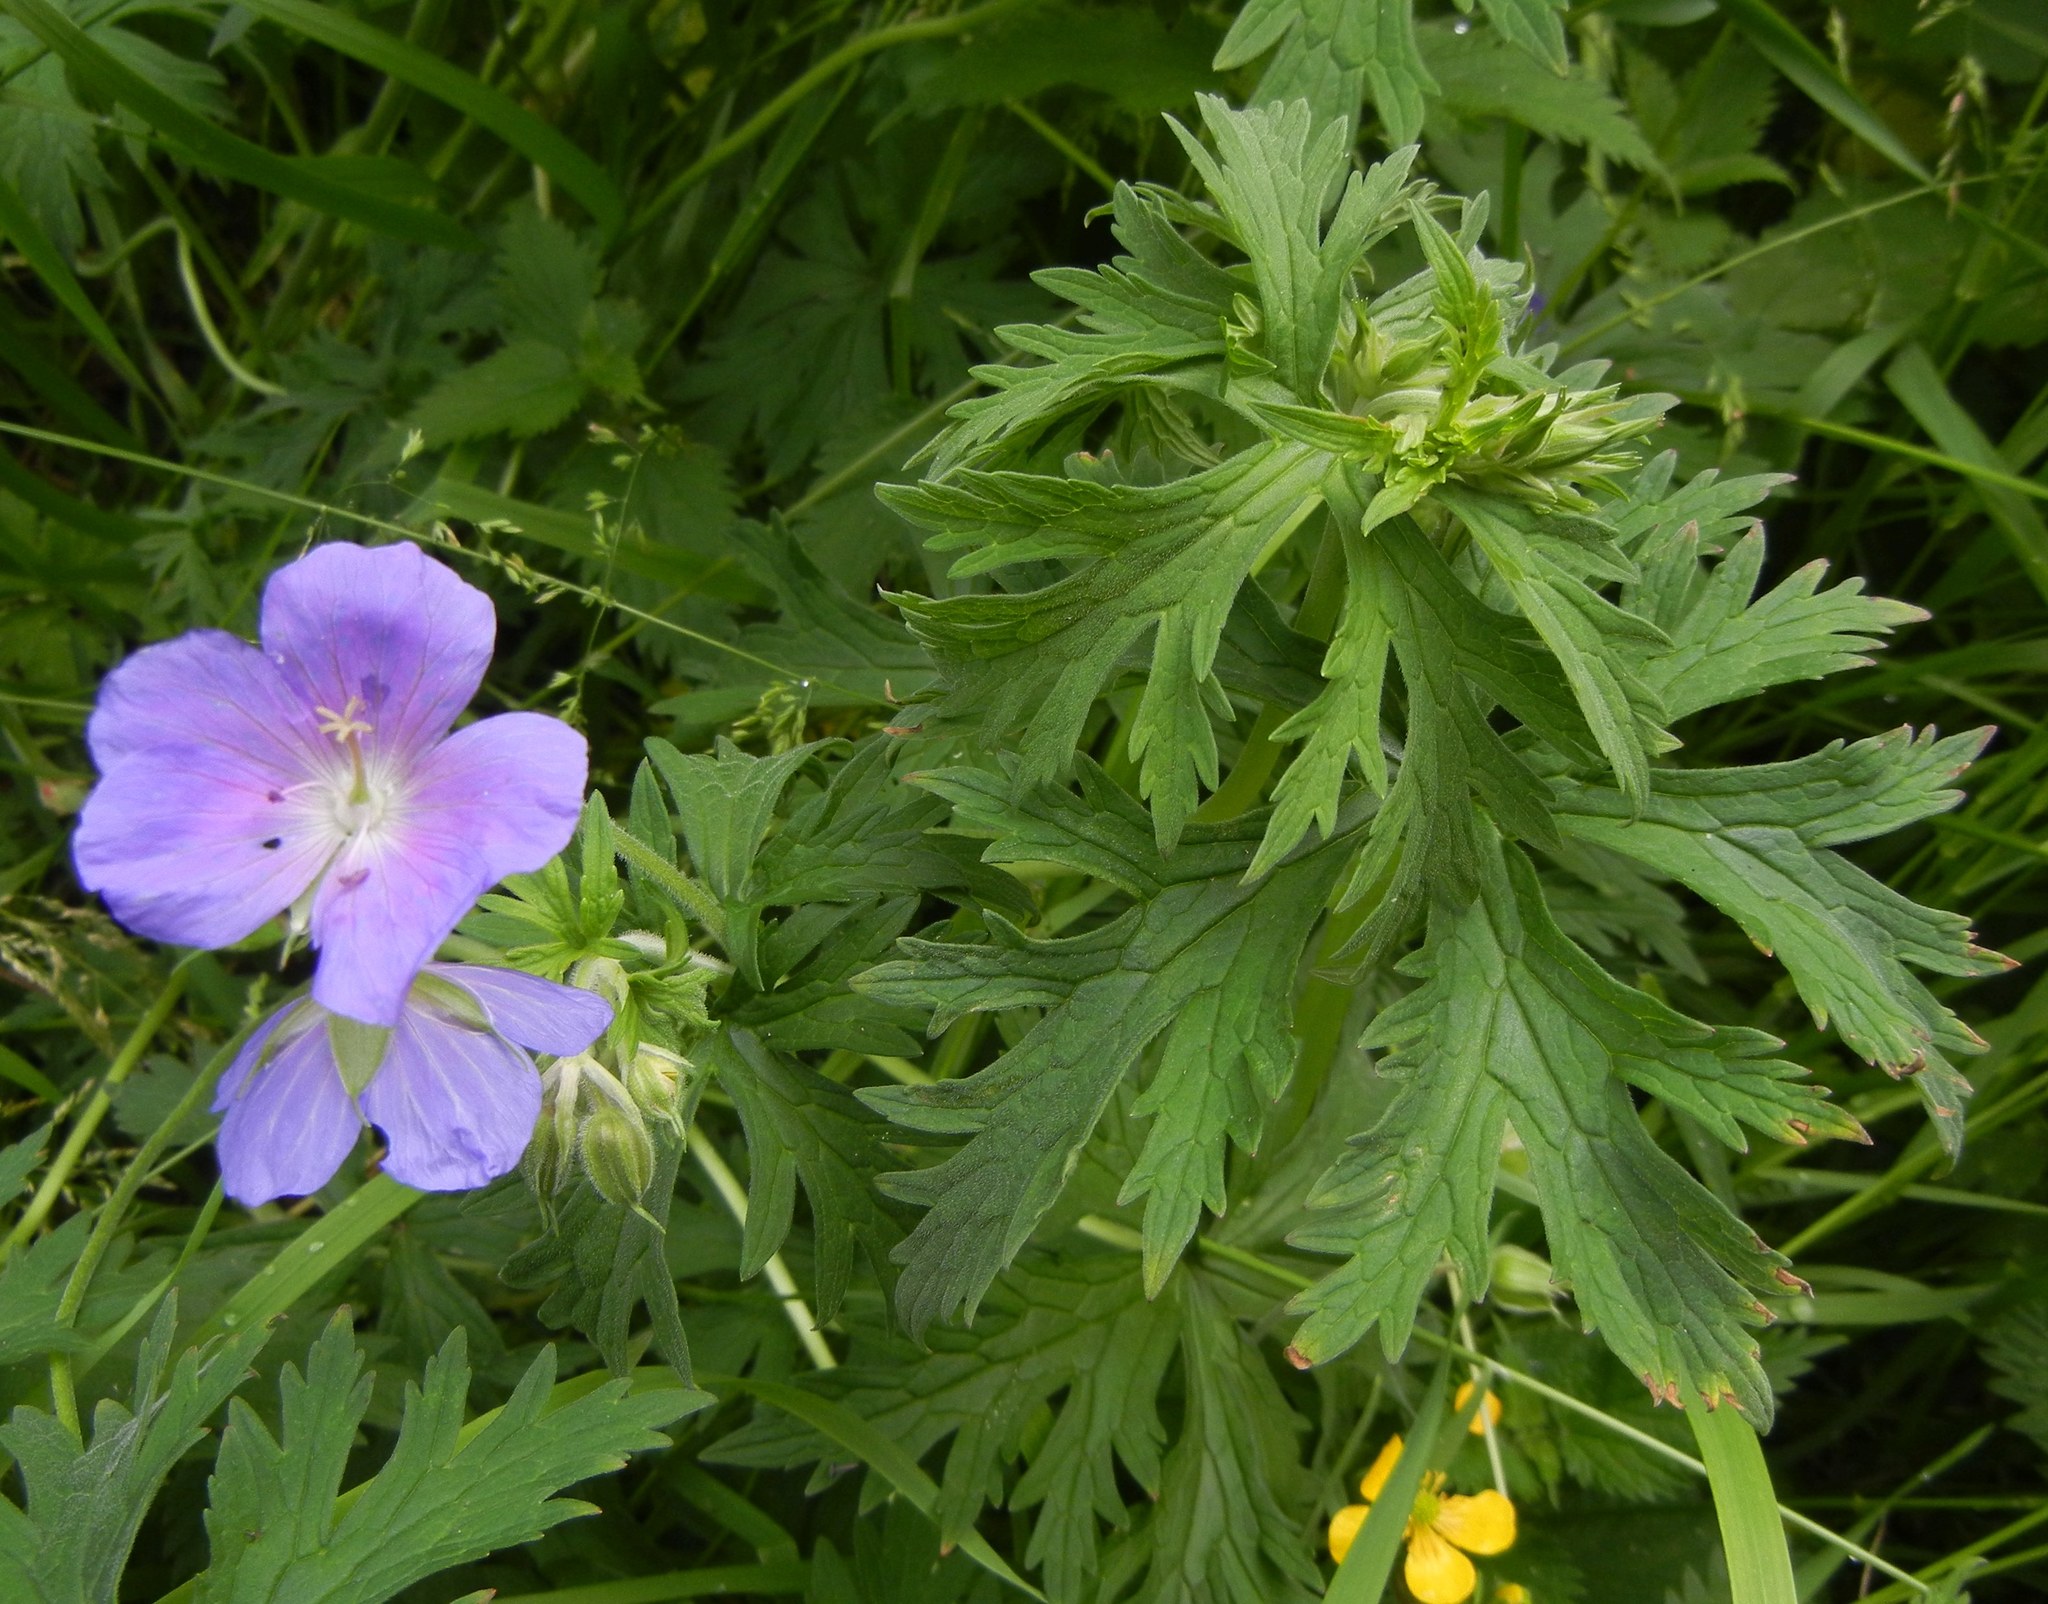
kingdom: Plantae
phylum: Tracheophyta
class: Magnoliopsida
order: Geraniales
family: Geraniaceae
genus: Geranium
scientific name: Geranium pratense
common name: Meadow crane's-bill
